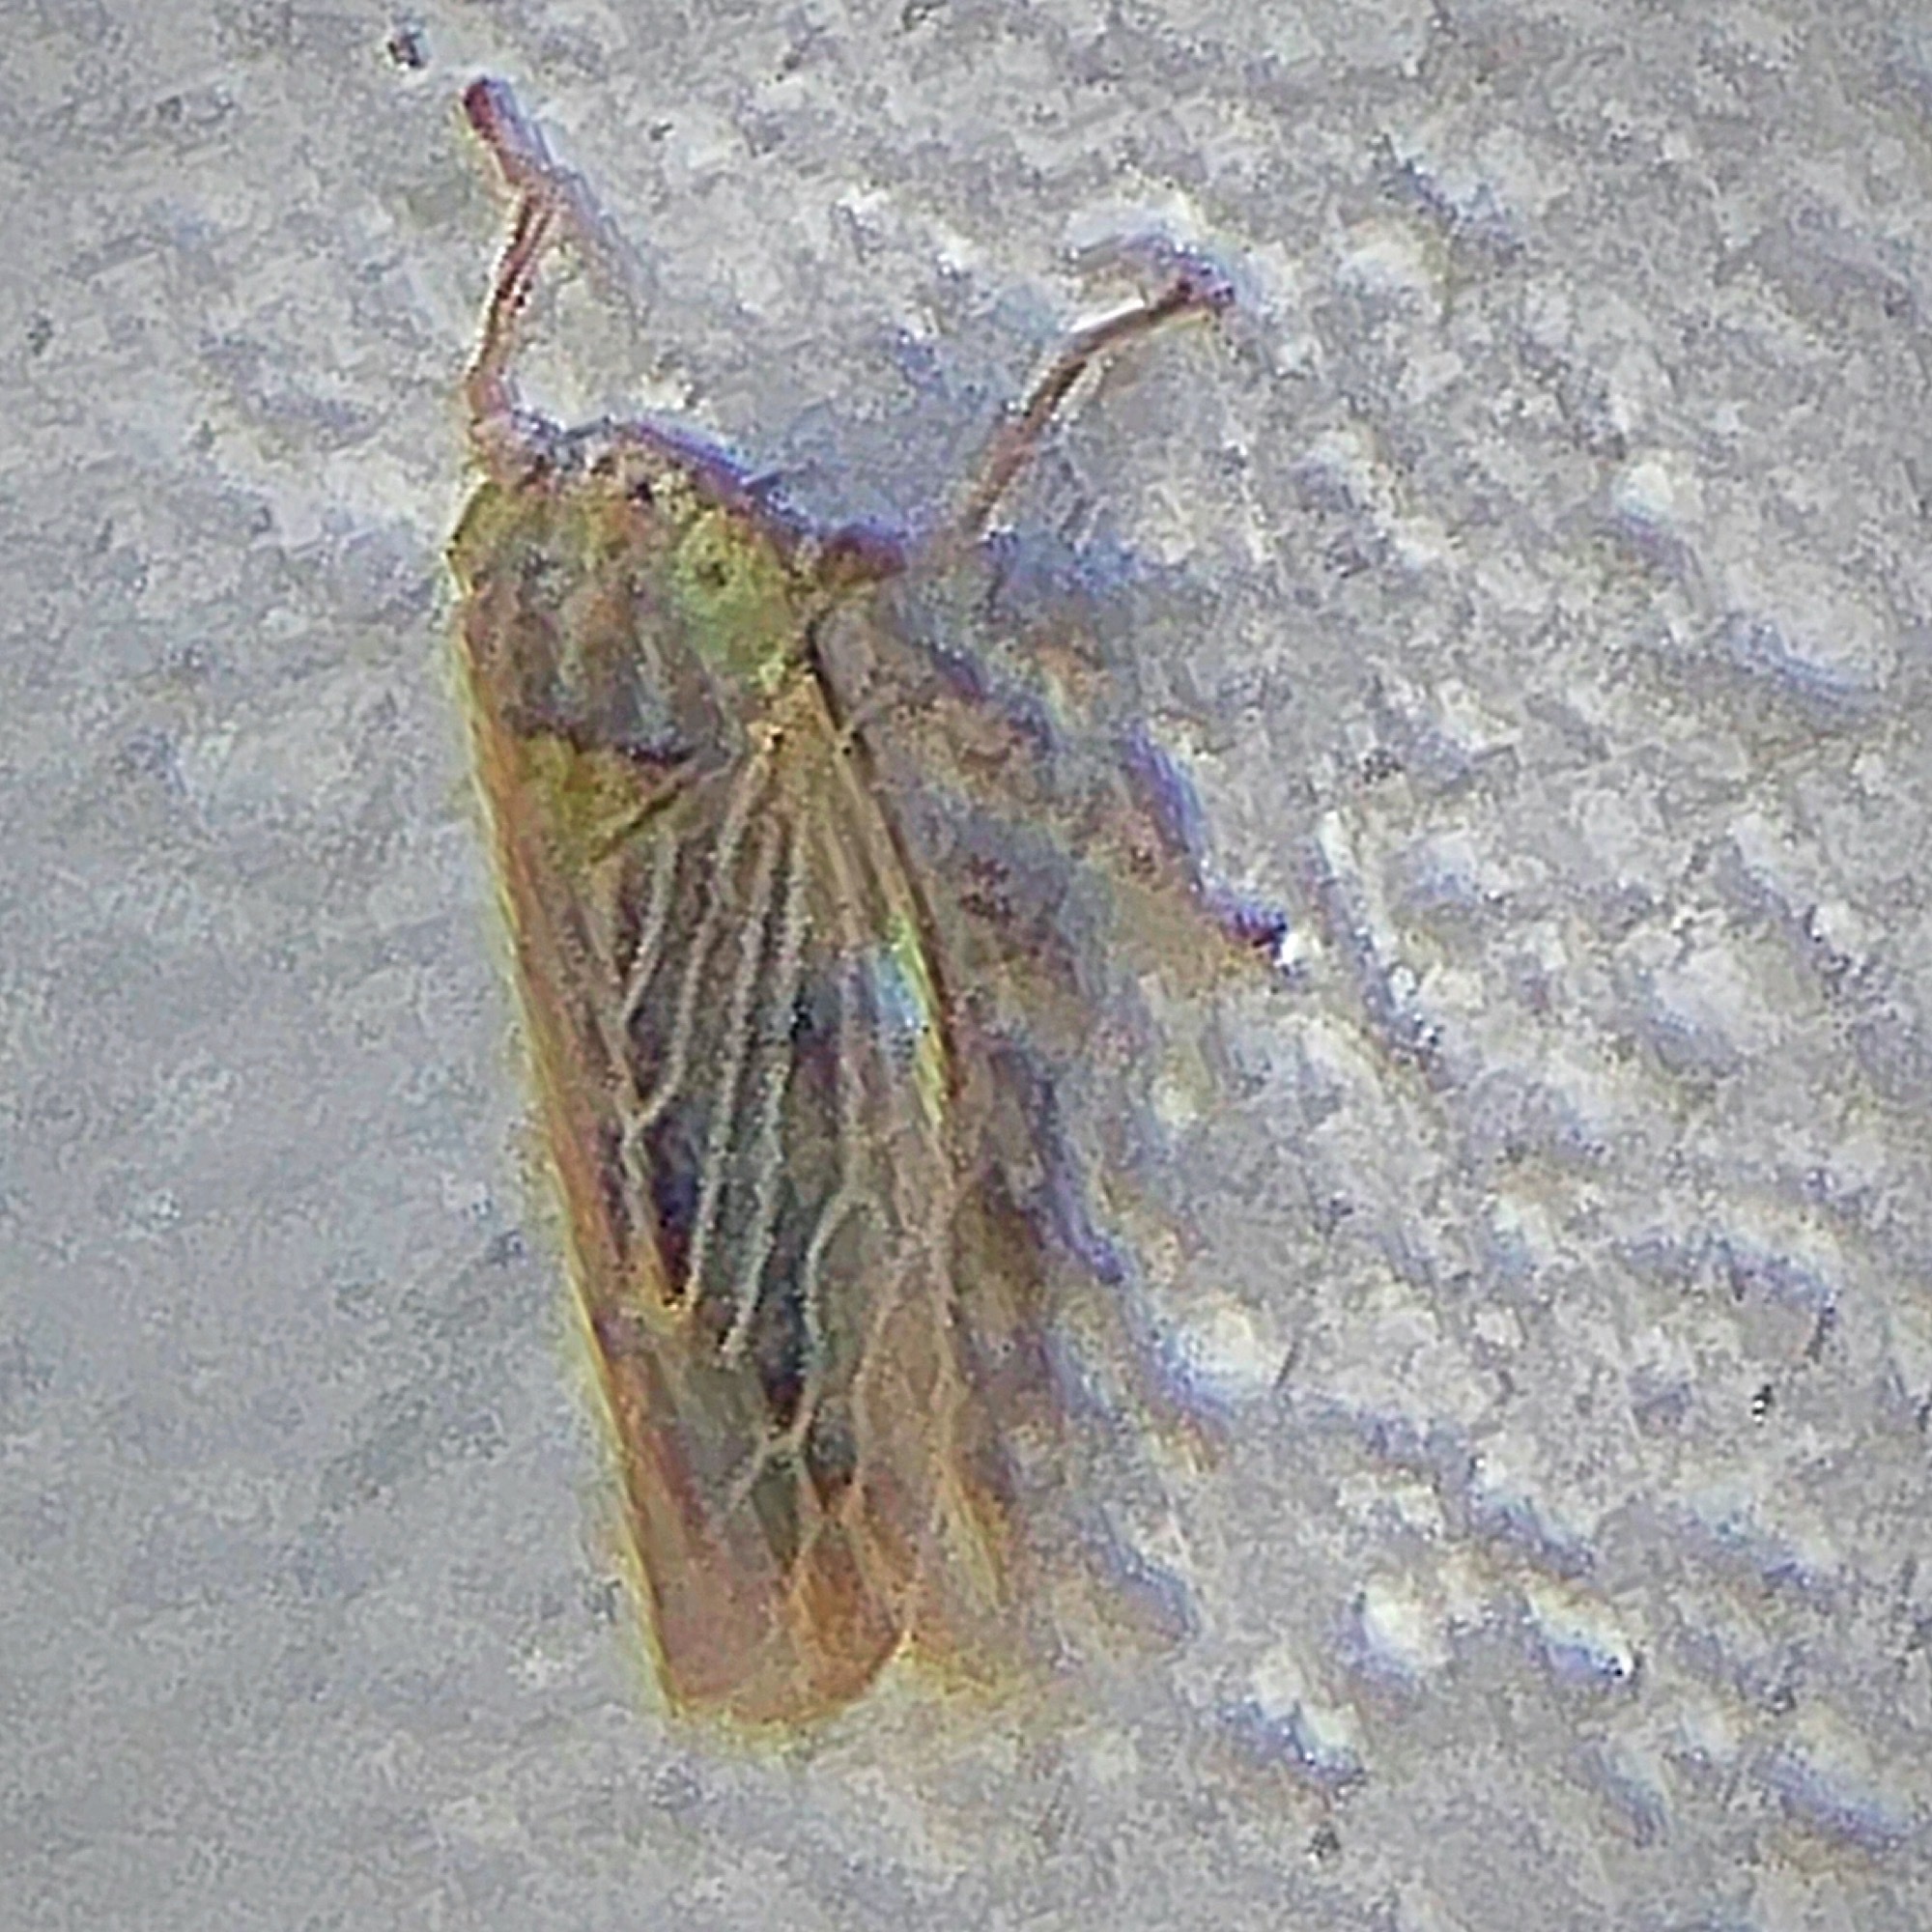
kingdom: Animalia
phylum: Arthropoda
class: Insecta
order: Hemiptera
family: Cicadellidae
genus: Graminella
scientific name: Graminella nigrifrons
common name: Blackfaced leafhopper
